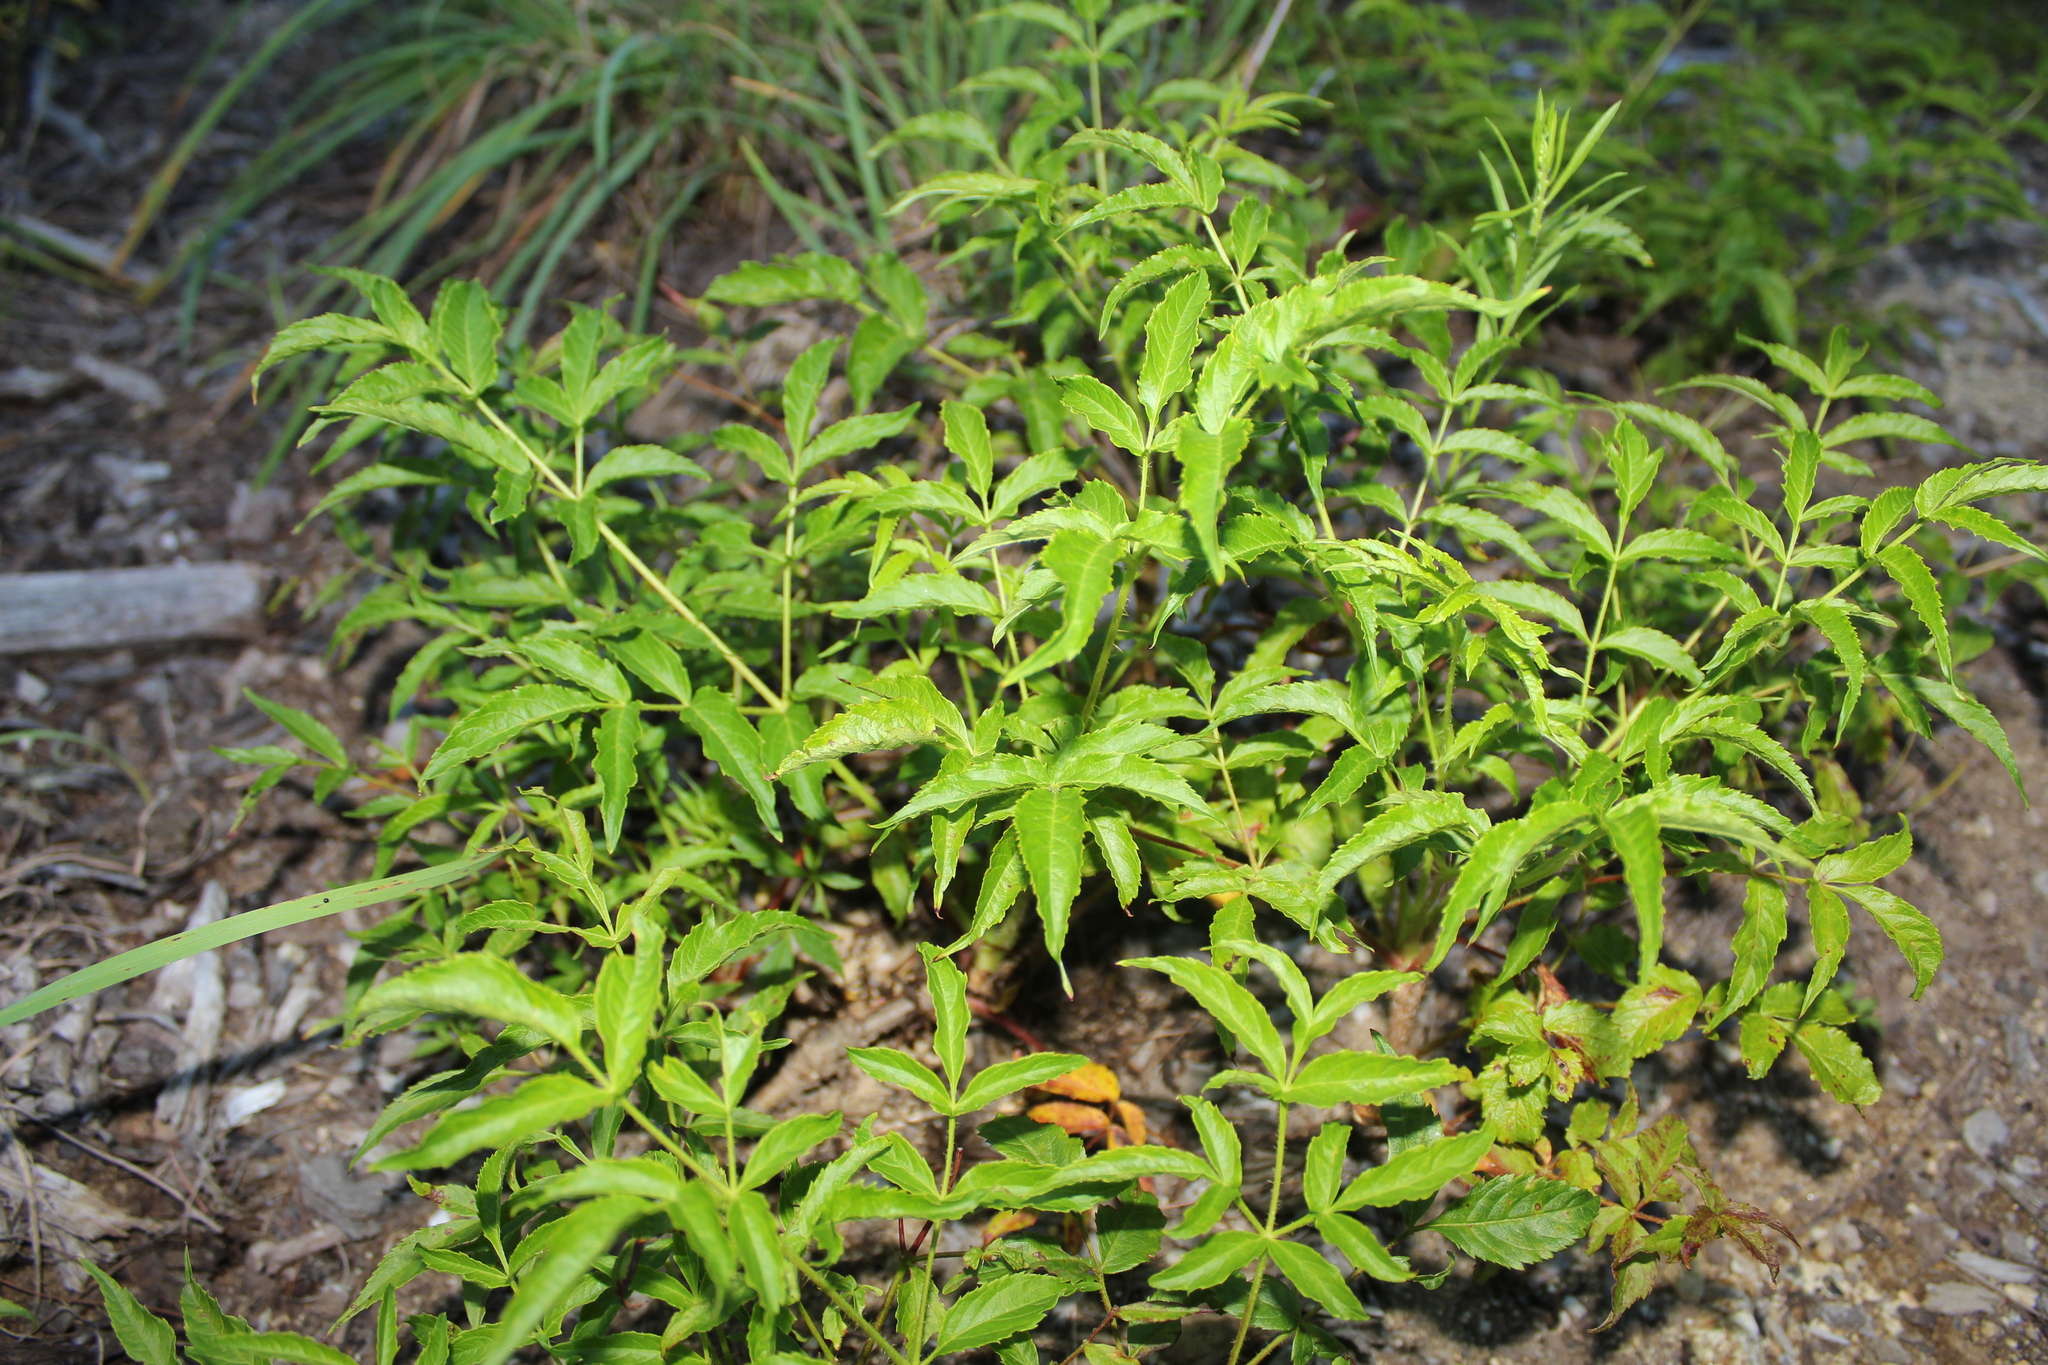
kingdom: Plantae
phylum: Tracheophyta
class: Magnoliopsida
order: Apiales
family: Araliaceae
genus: Aralia
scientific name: Aralia hispida
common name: Bristly sarsaparilla
